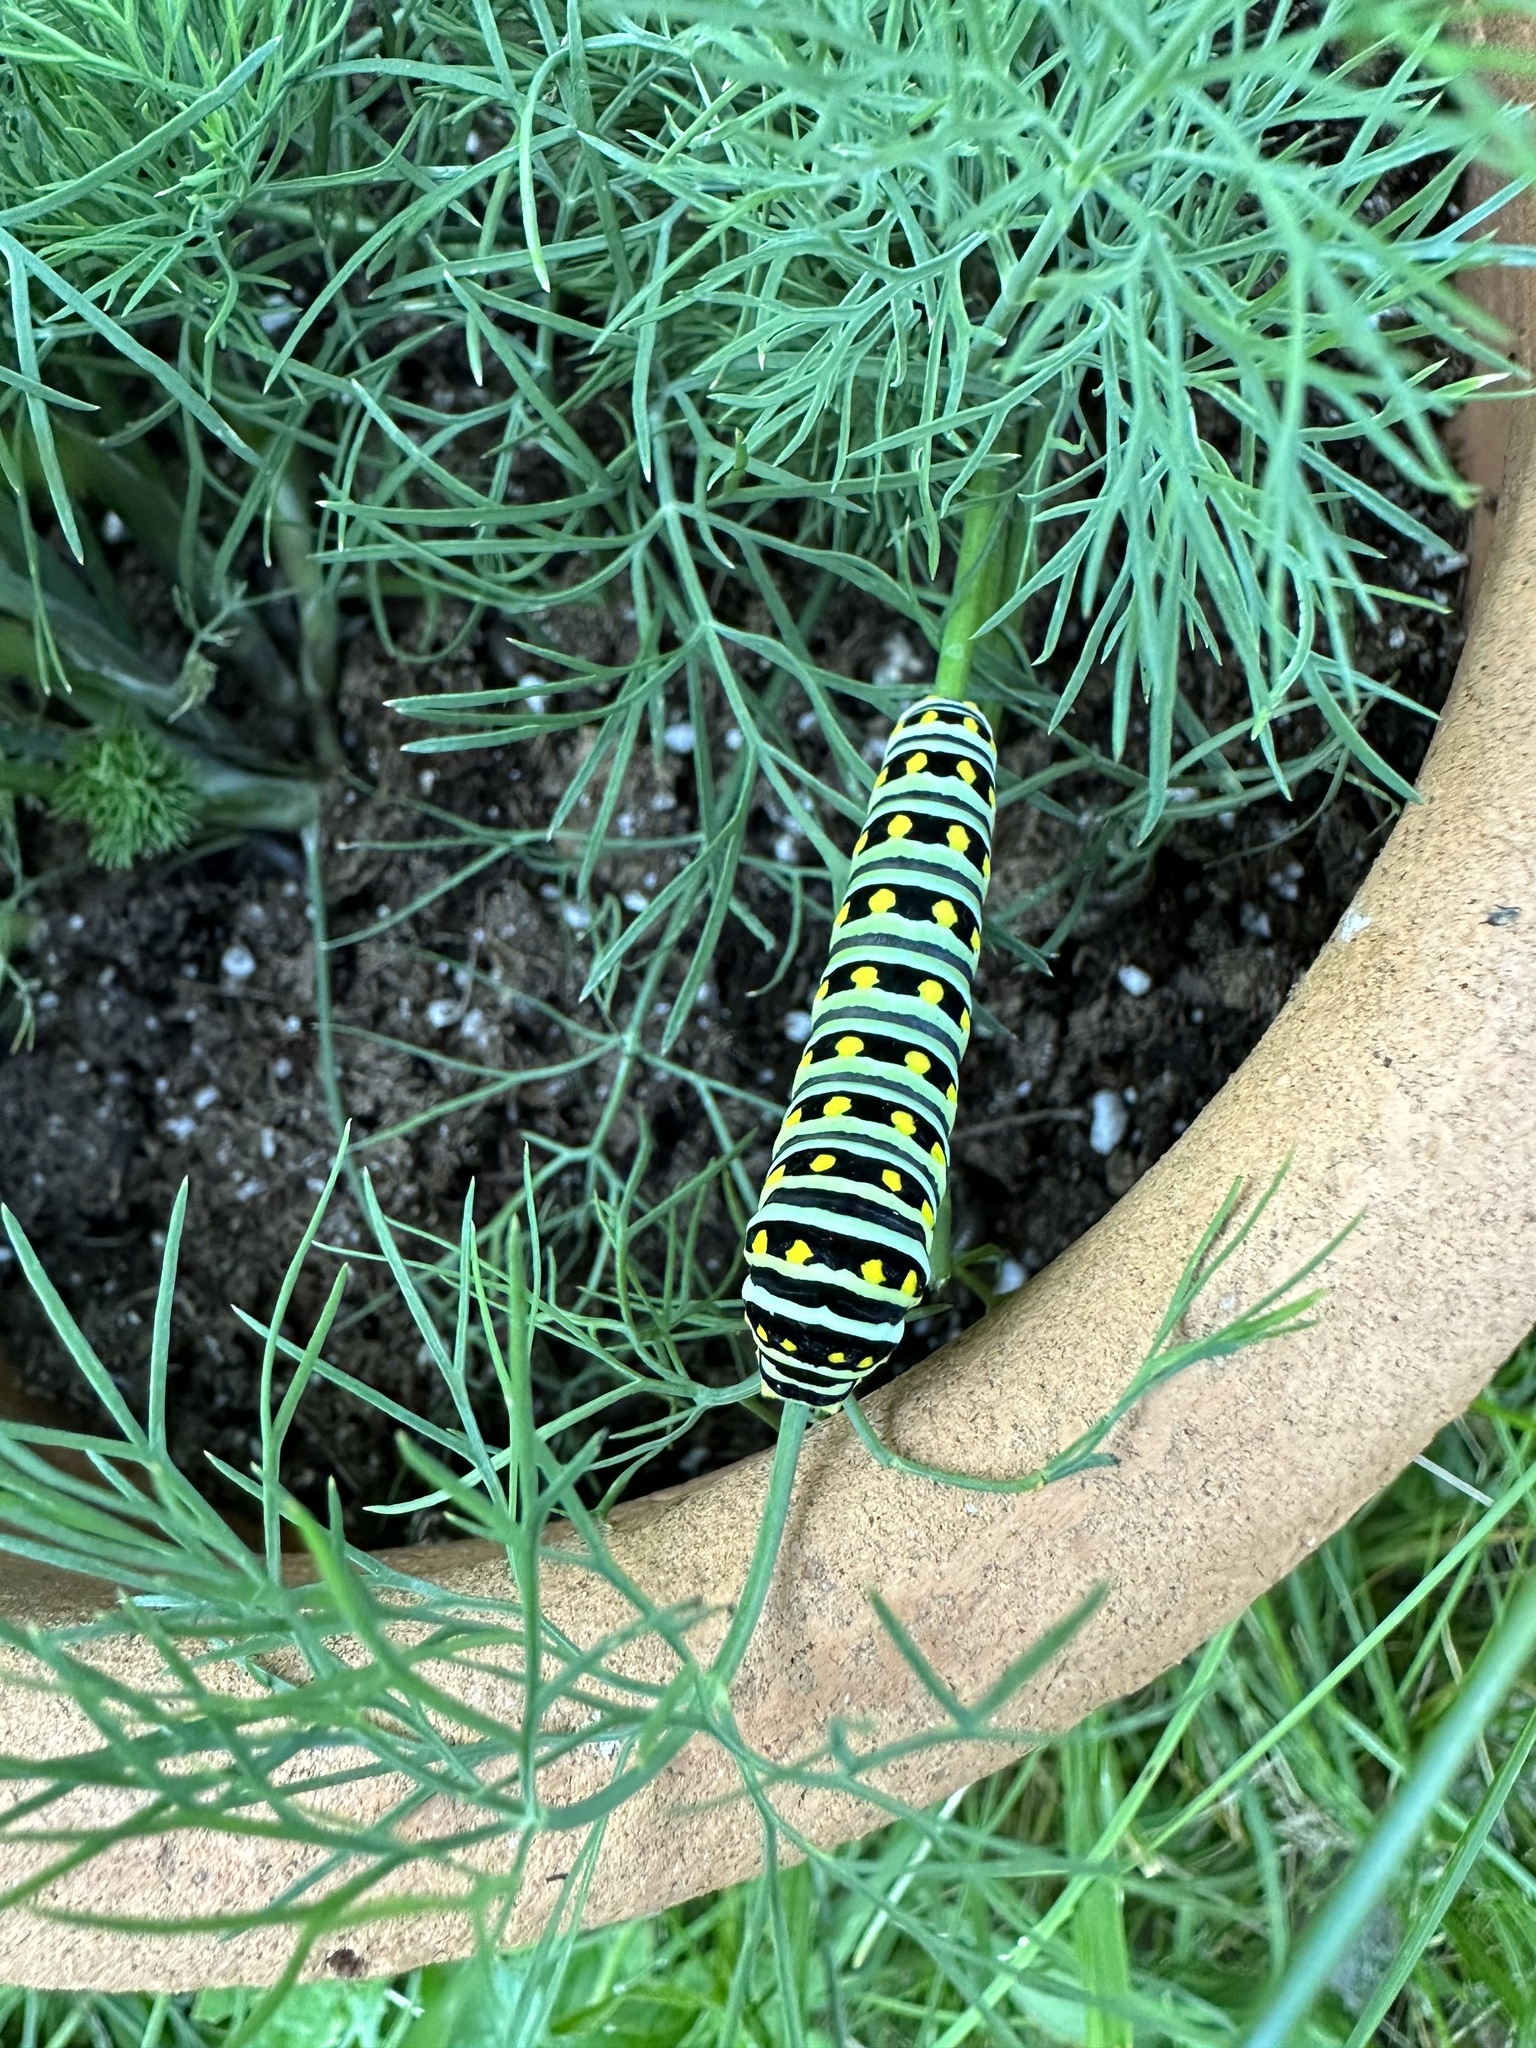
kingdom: Animalia
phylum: Arthropoda
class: Insecta
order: Lepidoptera
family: Papilionidae
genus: Papilio
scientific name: Papilio polyxenes
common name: Black swallowtail
